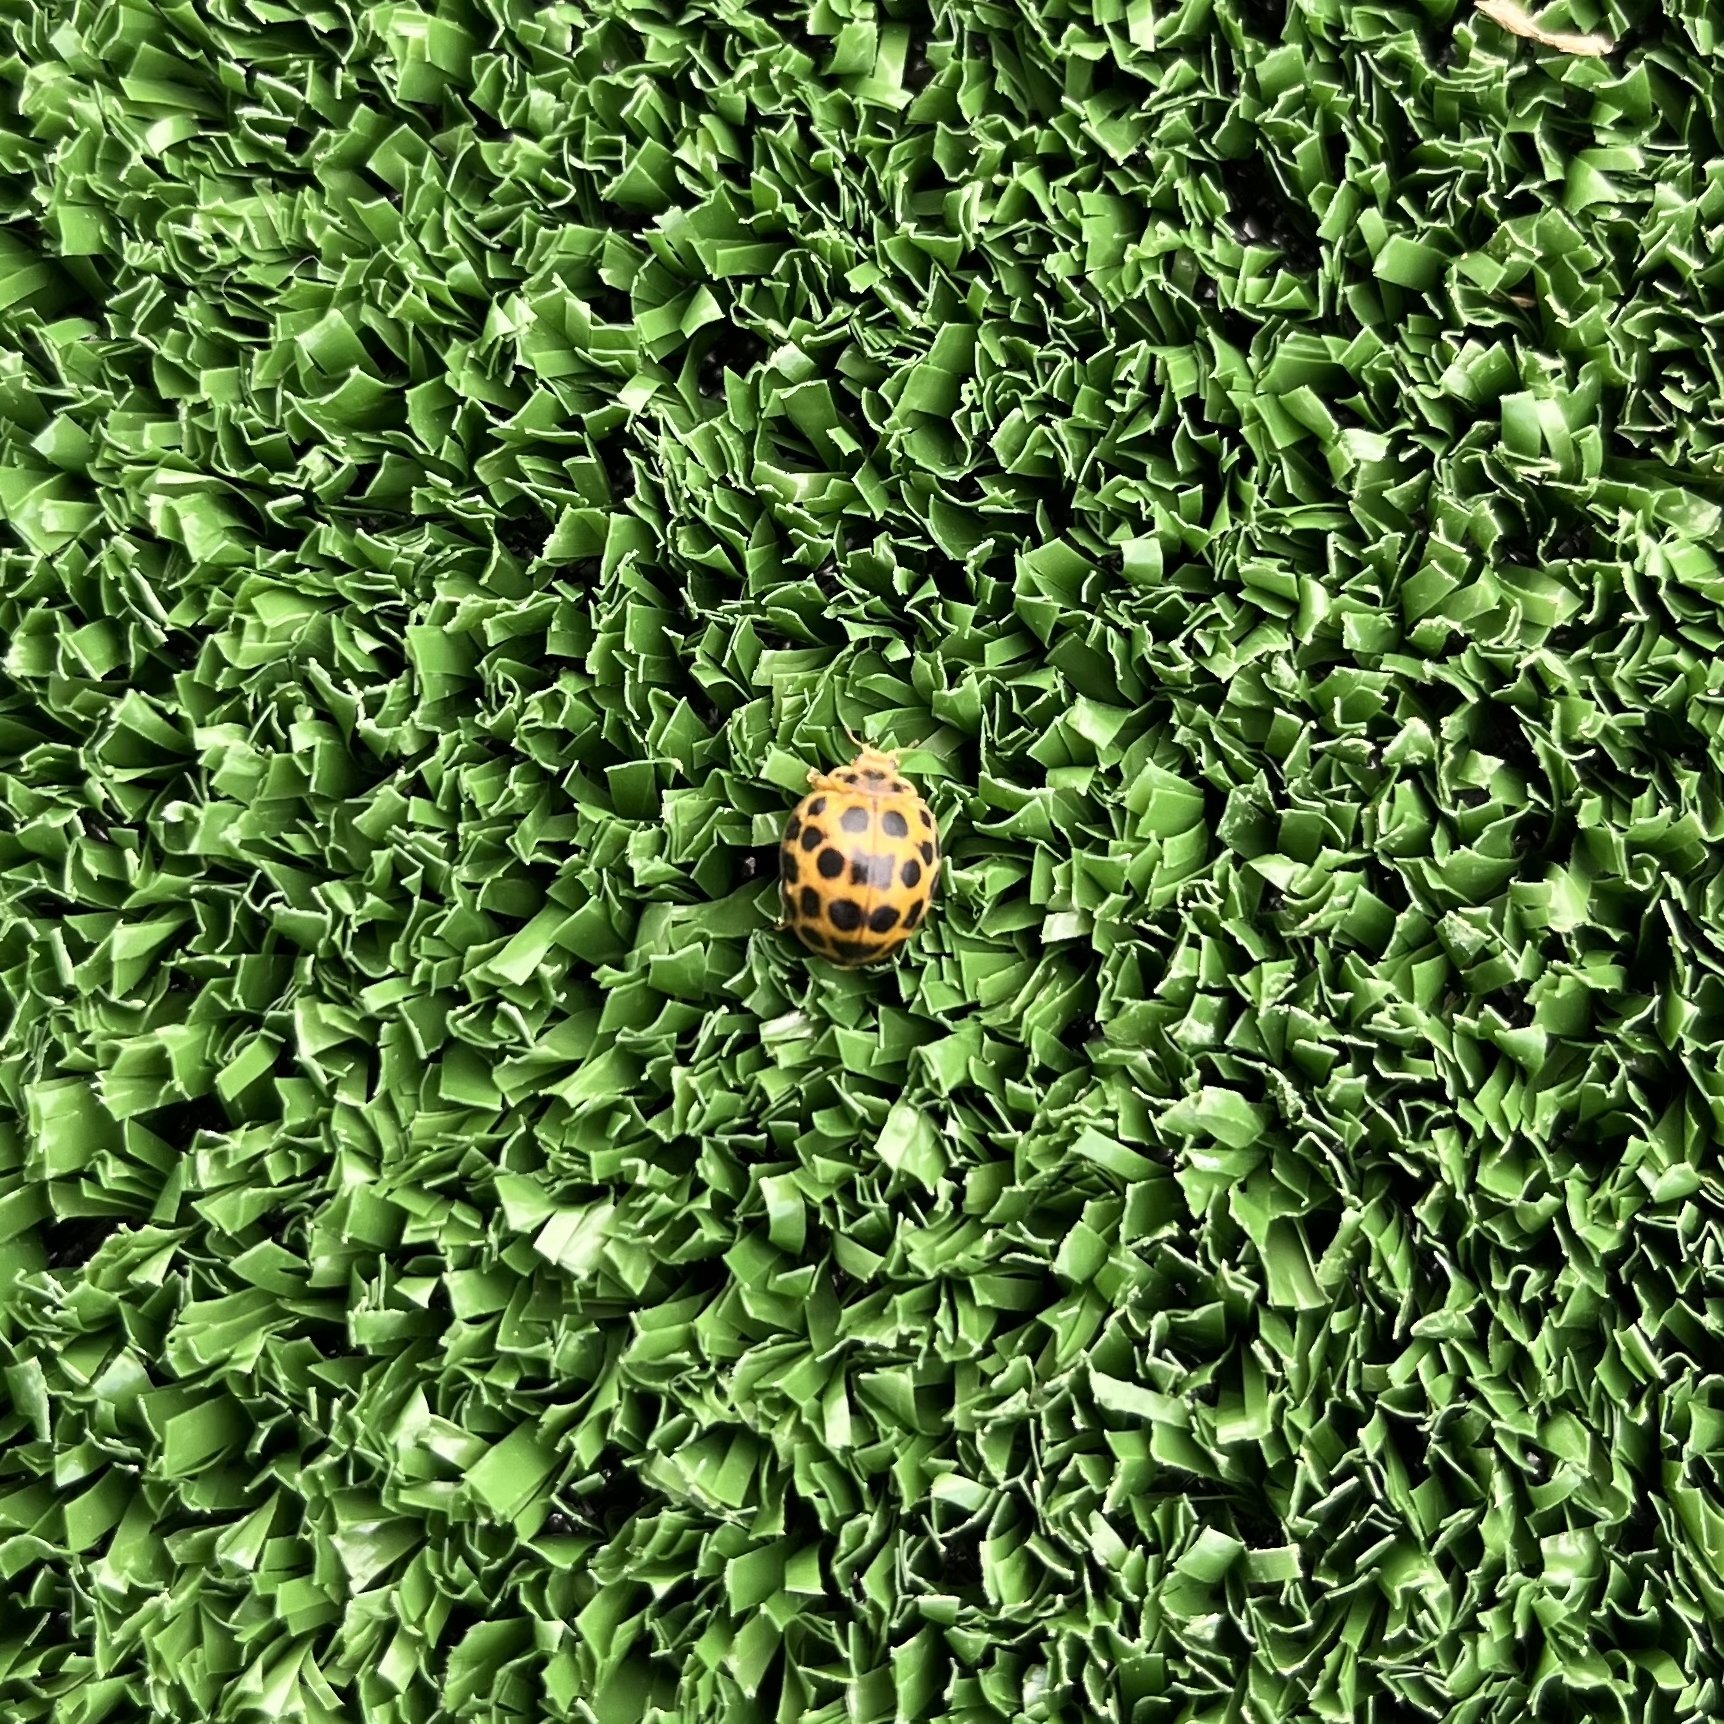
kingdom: Animalia
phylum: Arthropoda
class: Insecta
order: Coleoptera
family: Coccinellidae
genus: Henosepilachna
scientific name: Henosepilachna vigintioctopunctata
